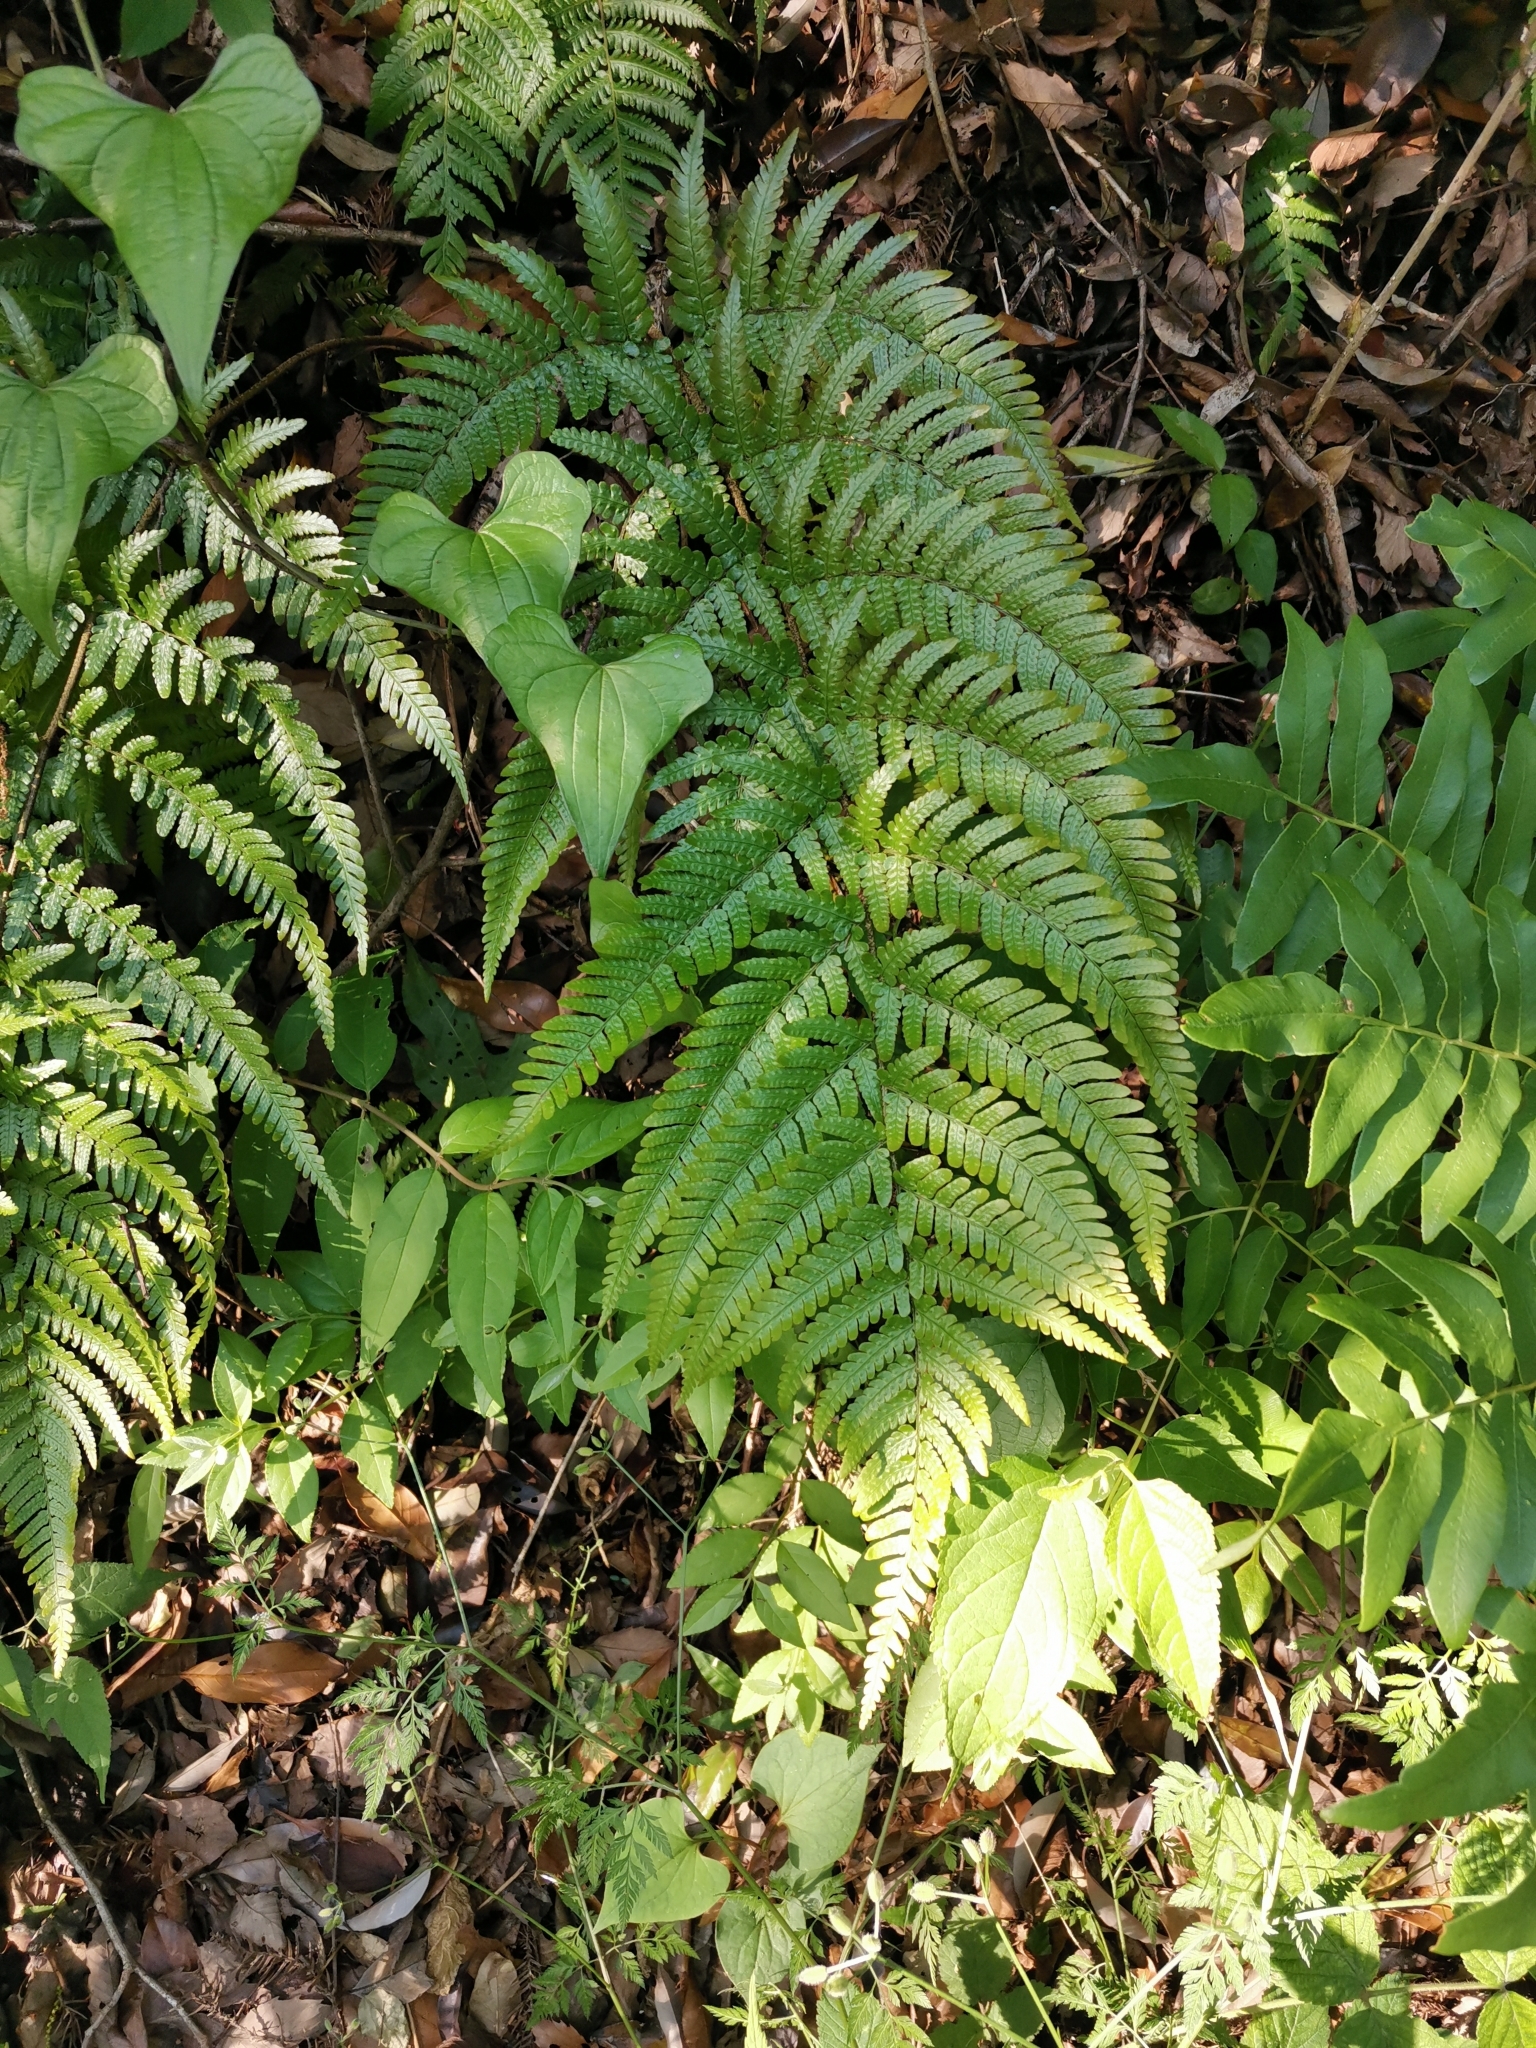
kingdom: Plantae
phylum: Tracheophyta
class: Polypodiopsida
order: Polypodiales
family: Dryopteridaceae
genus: Dryopteris
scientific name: Dryopteris erythrovaria
